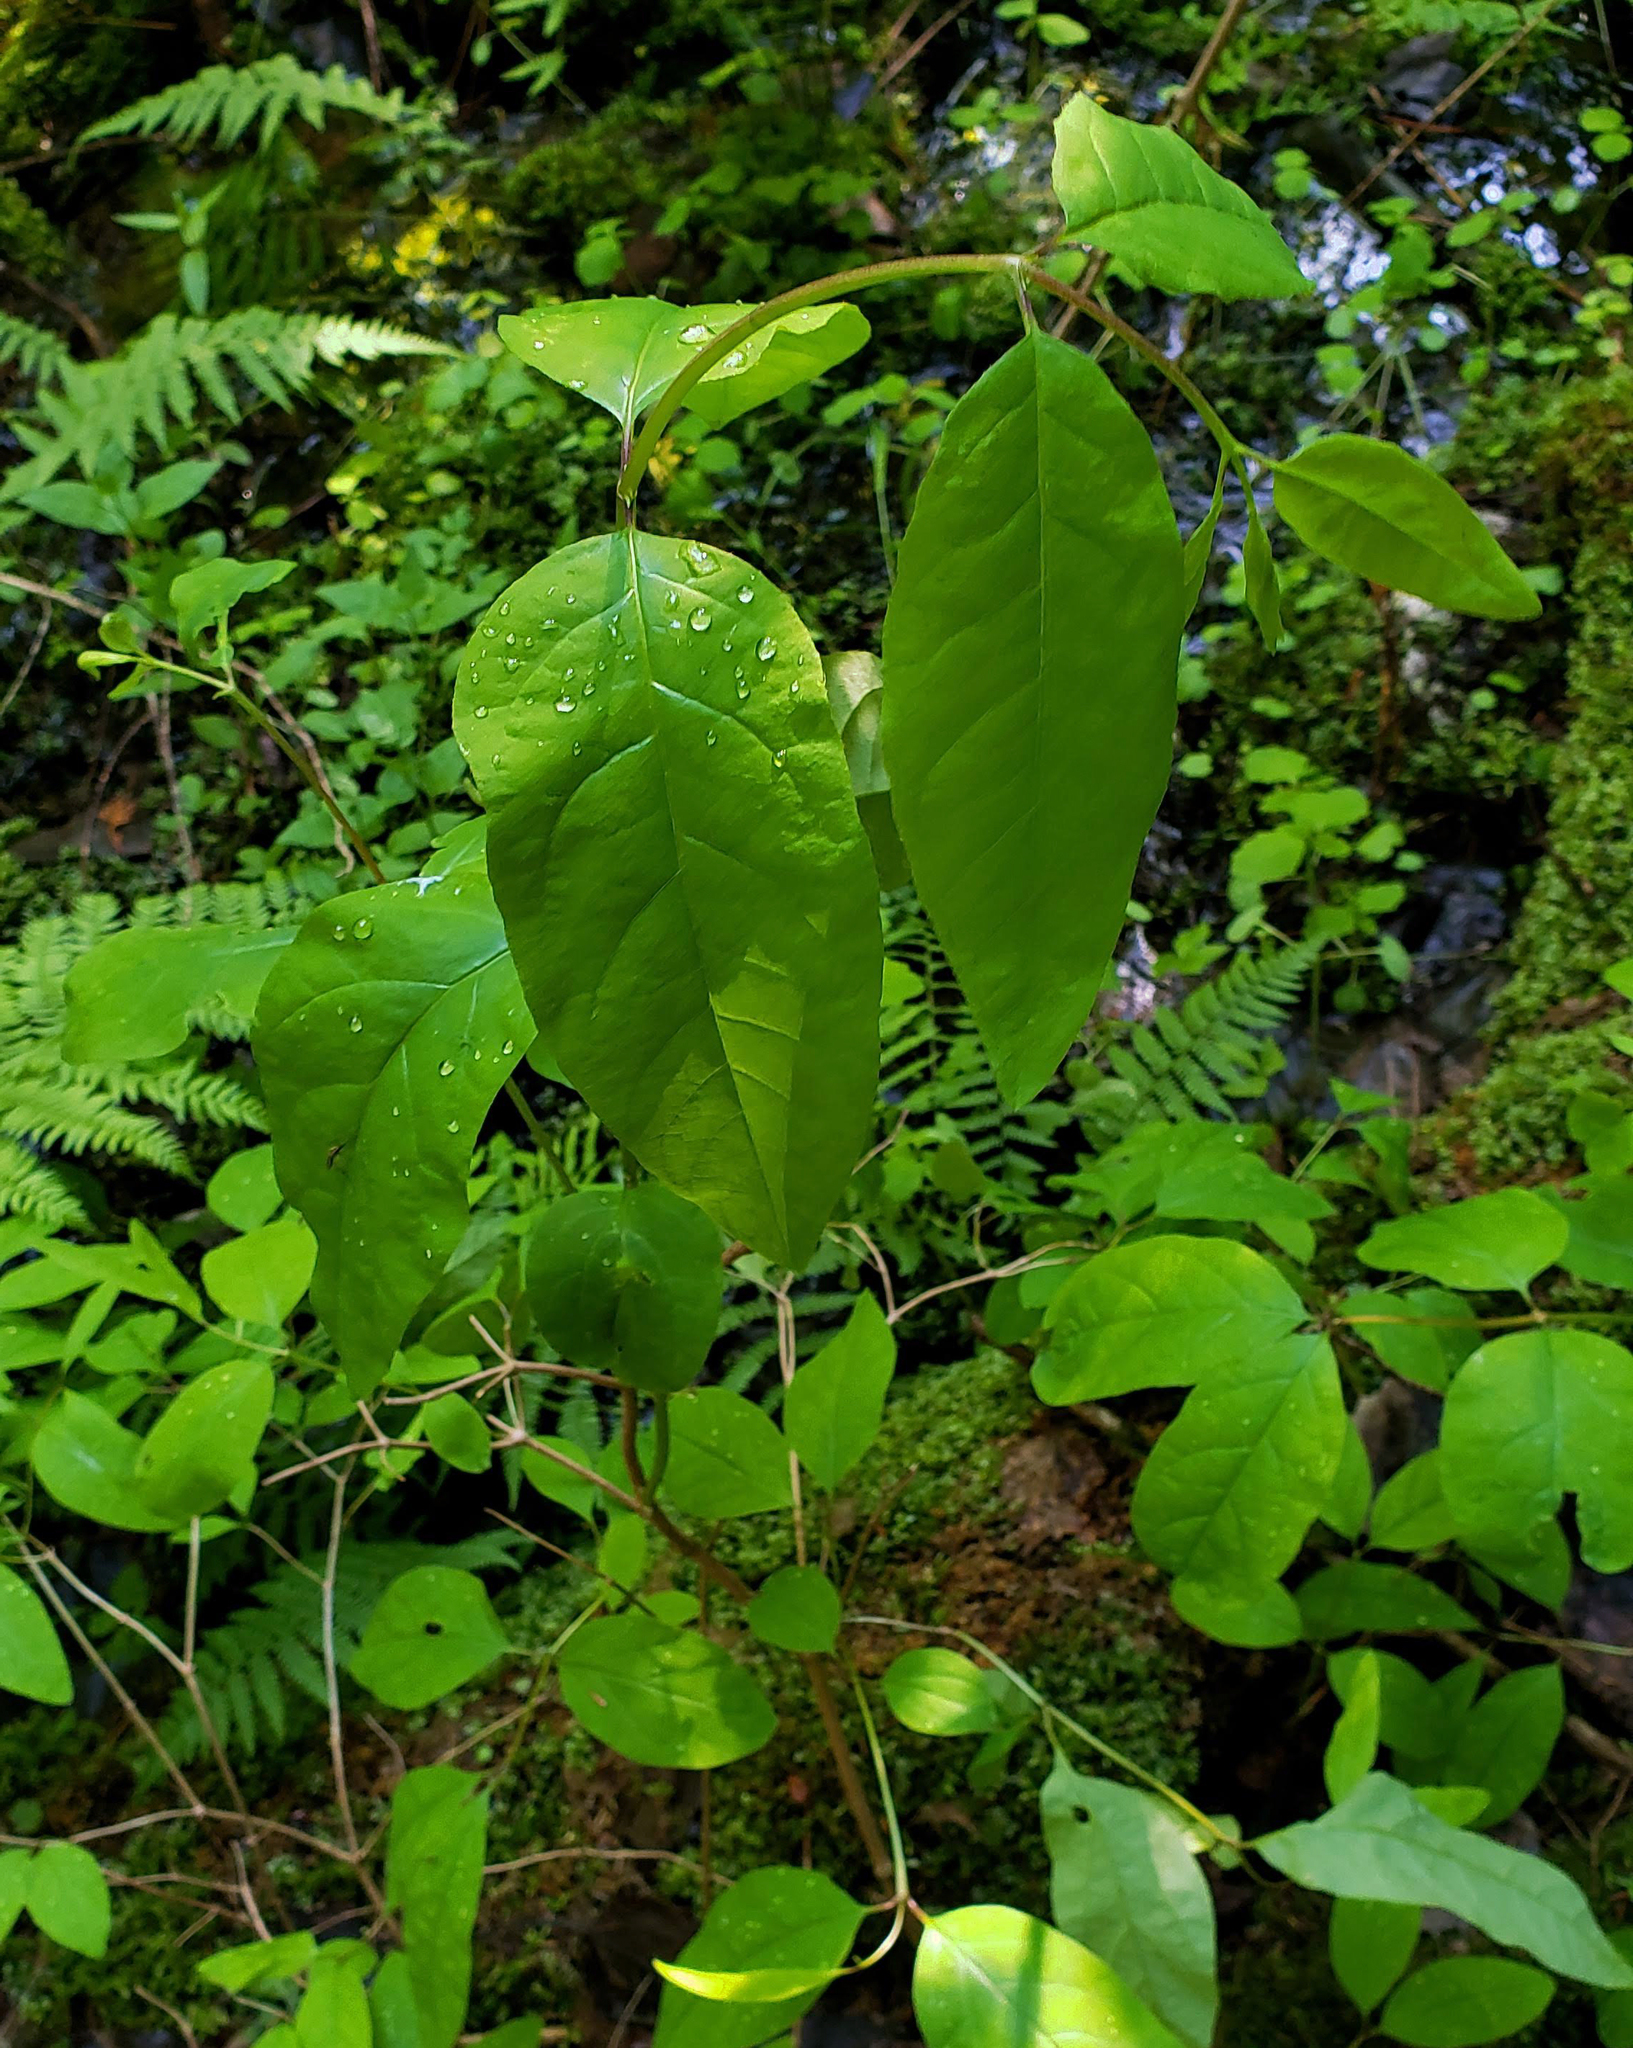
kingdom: Plantae
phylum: Tracheophyta
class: Magnoliopsida
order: Dipsacales
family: Caprifoliaceae
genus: Lonicera
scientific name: Lonicera canadensis
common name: American fly-honeysuckle
